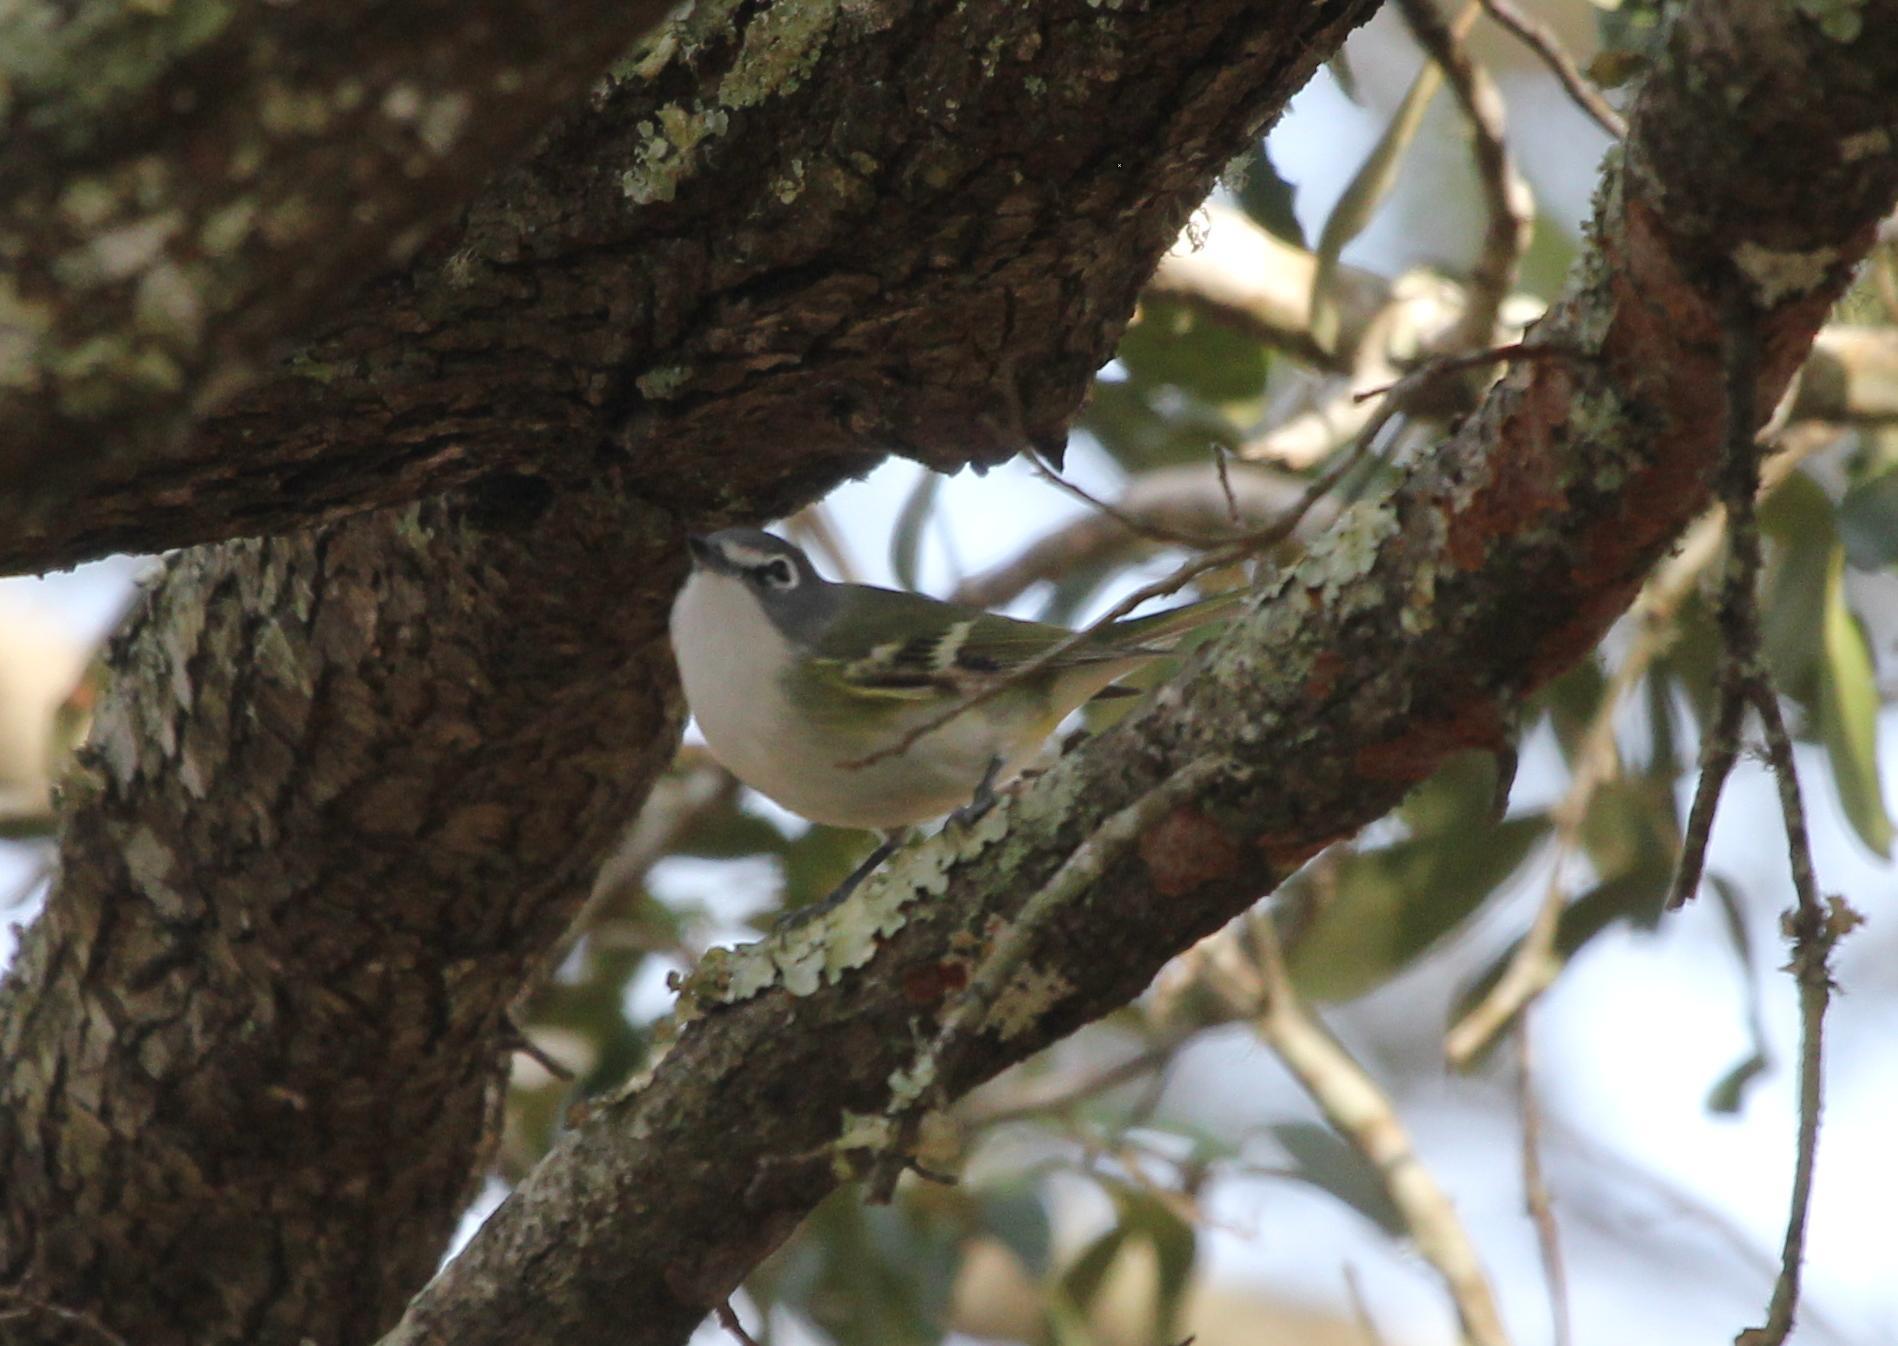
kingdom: Animalia
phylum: Chordata
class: Aves
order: Passeriformes
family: Vireonidae
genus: Vireo
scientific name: Vireo solitarius
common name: Blue-headed vireo
